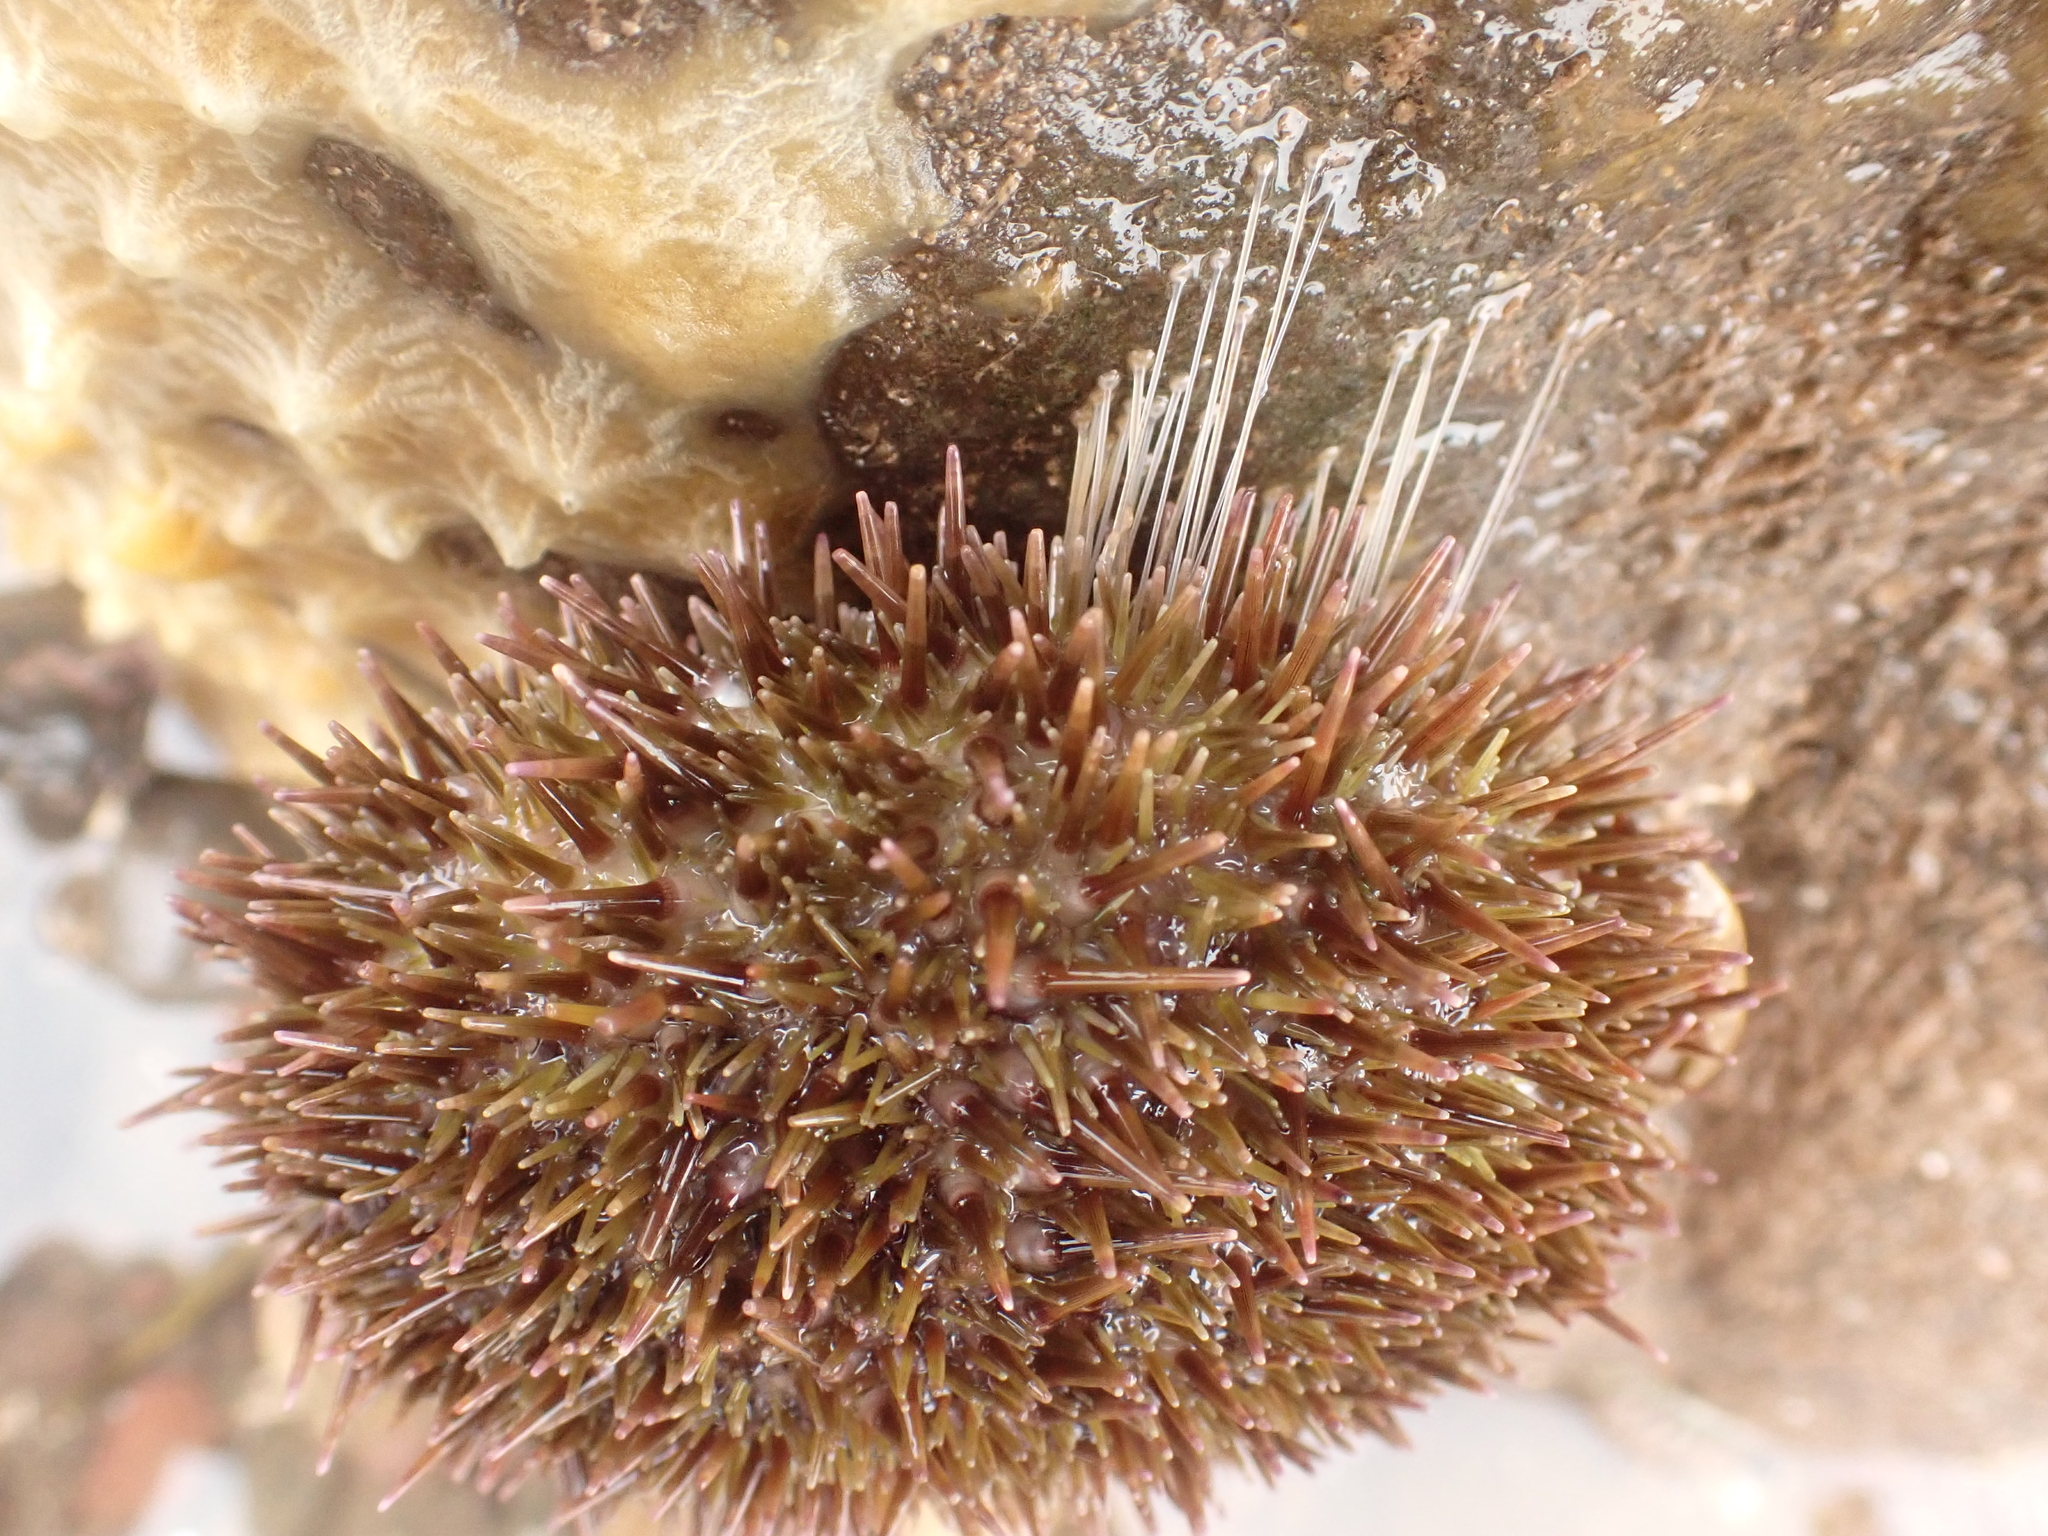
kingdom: Animalia
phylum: Echinodermata
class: Echinoidea
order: Camarodonta
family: Strongylocentrotidae
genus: Strongylocentrotus
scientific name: Strongylocentrotus droebachiensis
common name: Northern sea urchin
